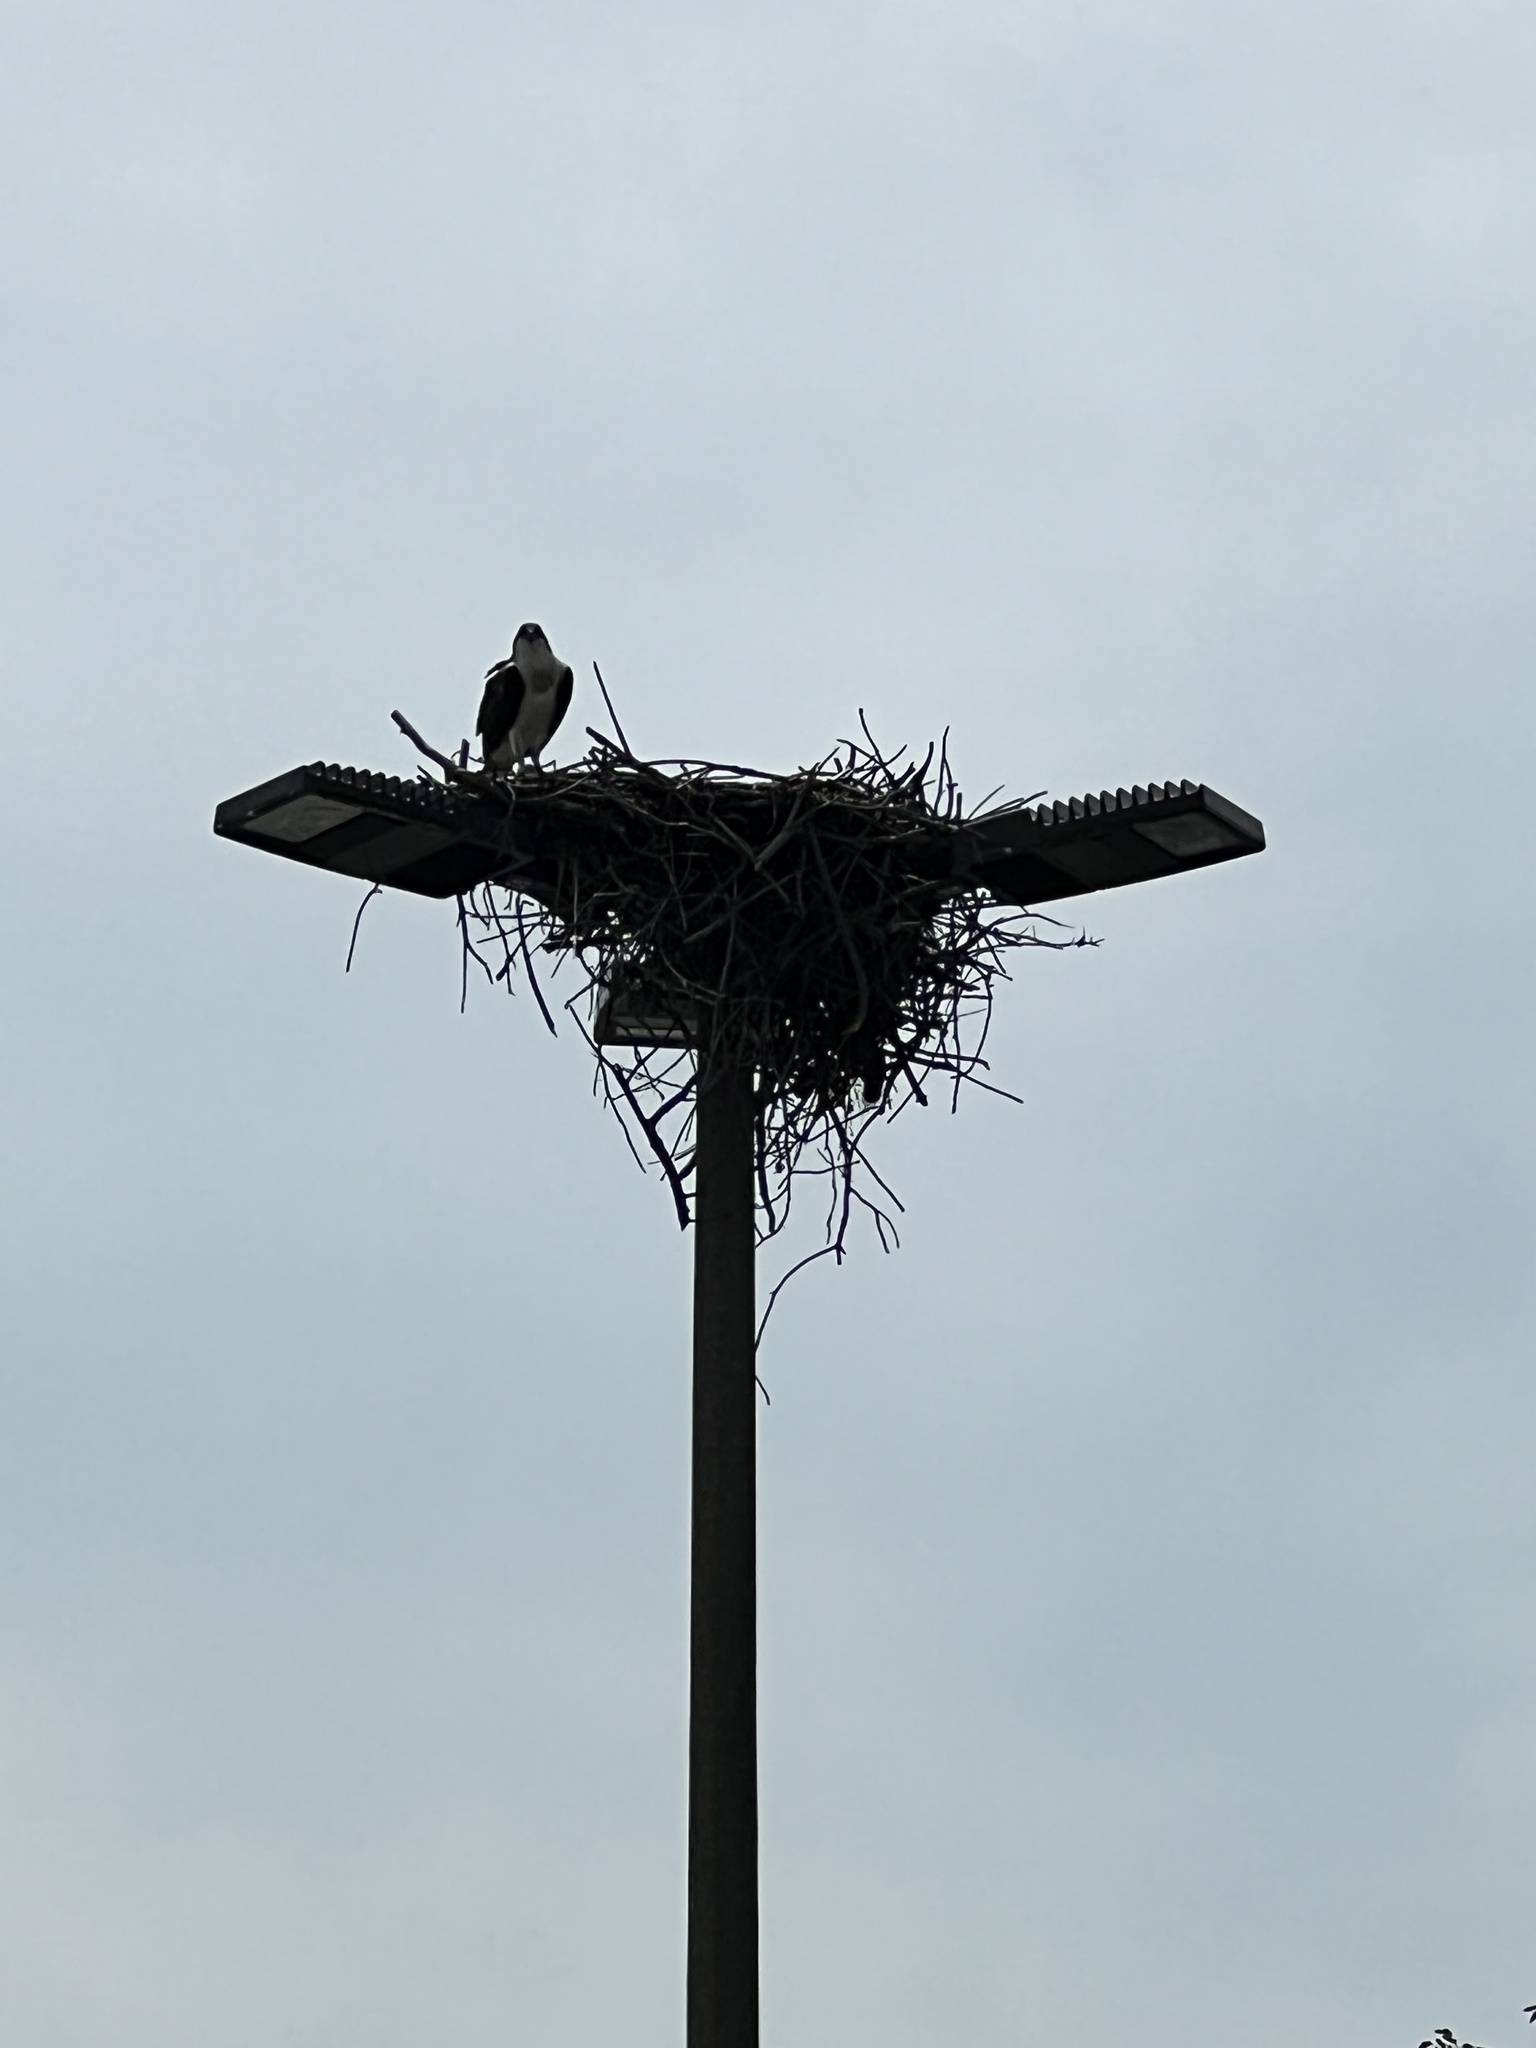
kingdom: Animalia
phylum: Chordata
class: Aves
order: Accipitriformes
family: Pandionidae
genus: Pandion
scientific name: Pandion haliaetus
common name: Osprey
